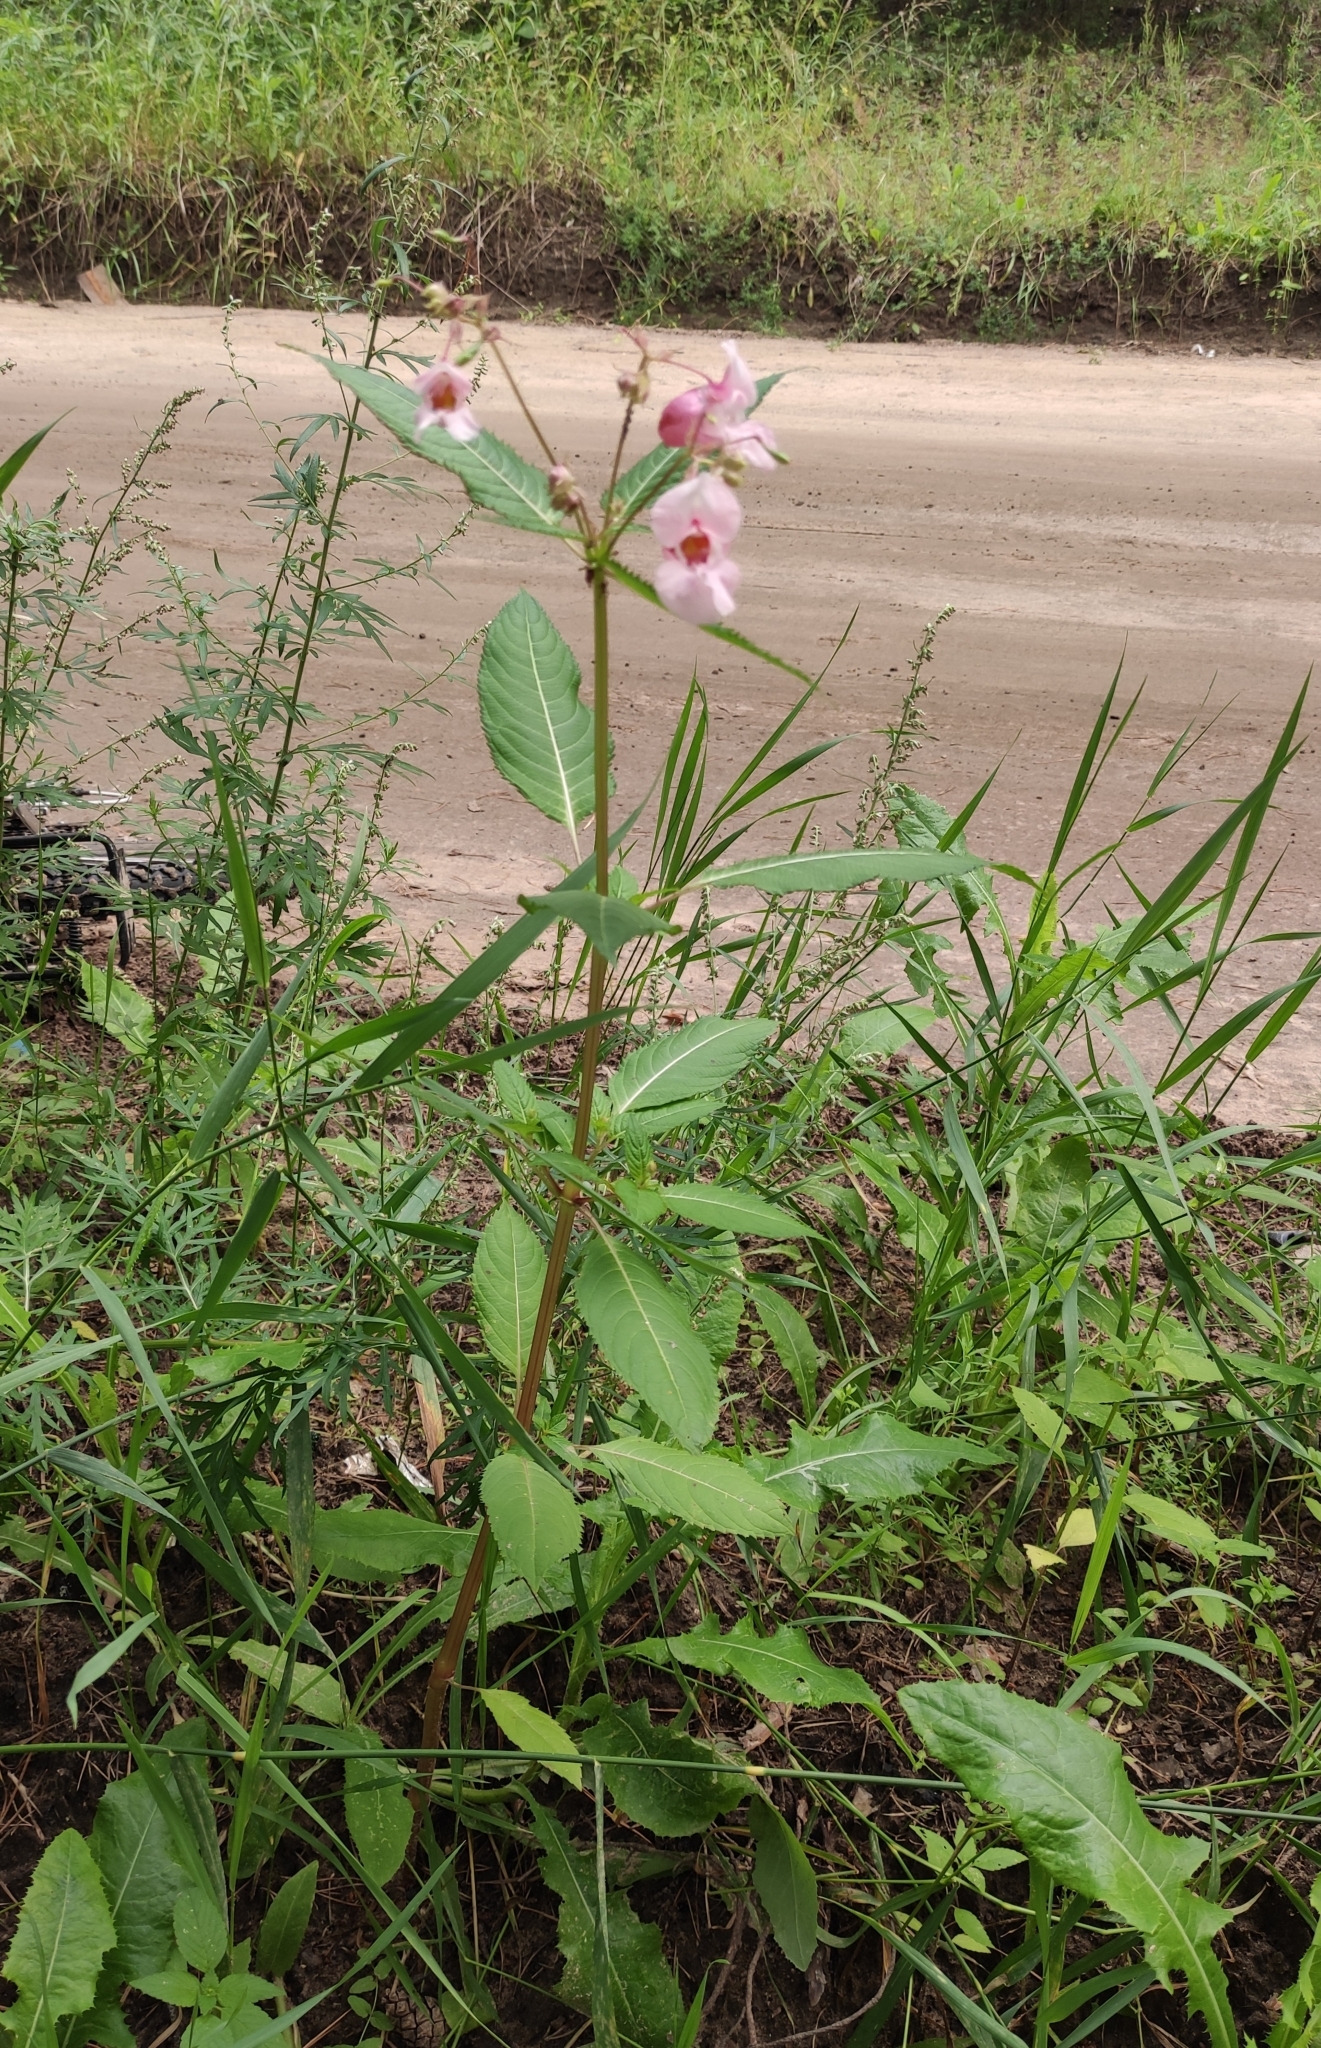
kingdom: Plantae
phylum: Tracheophyta
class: Magnoliopsida
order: Ericales
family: Balsaminaceae
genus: Impatiens
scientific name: Impatiens glandulifera
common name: Himalayan balsam
